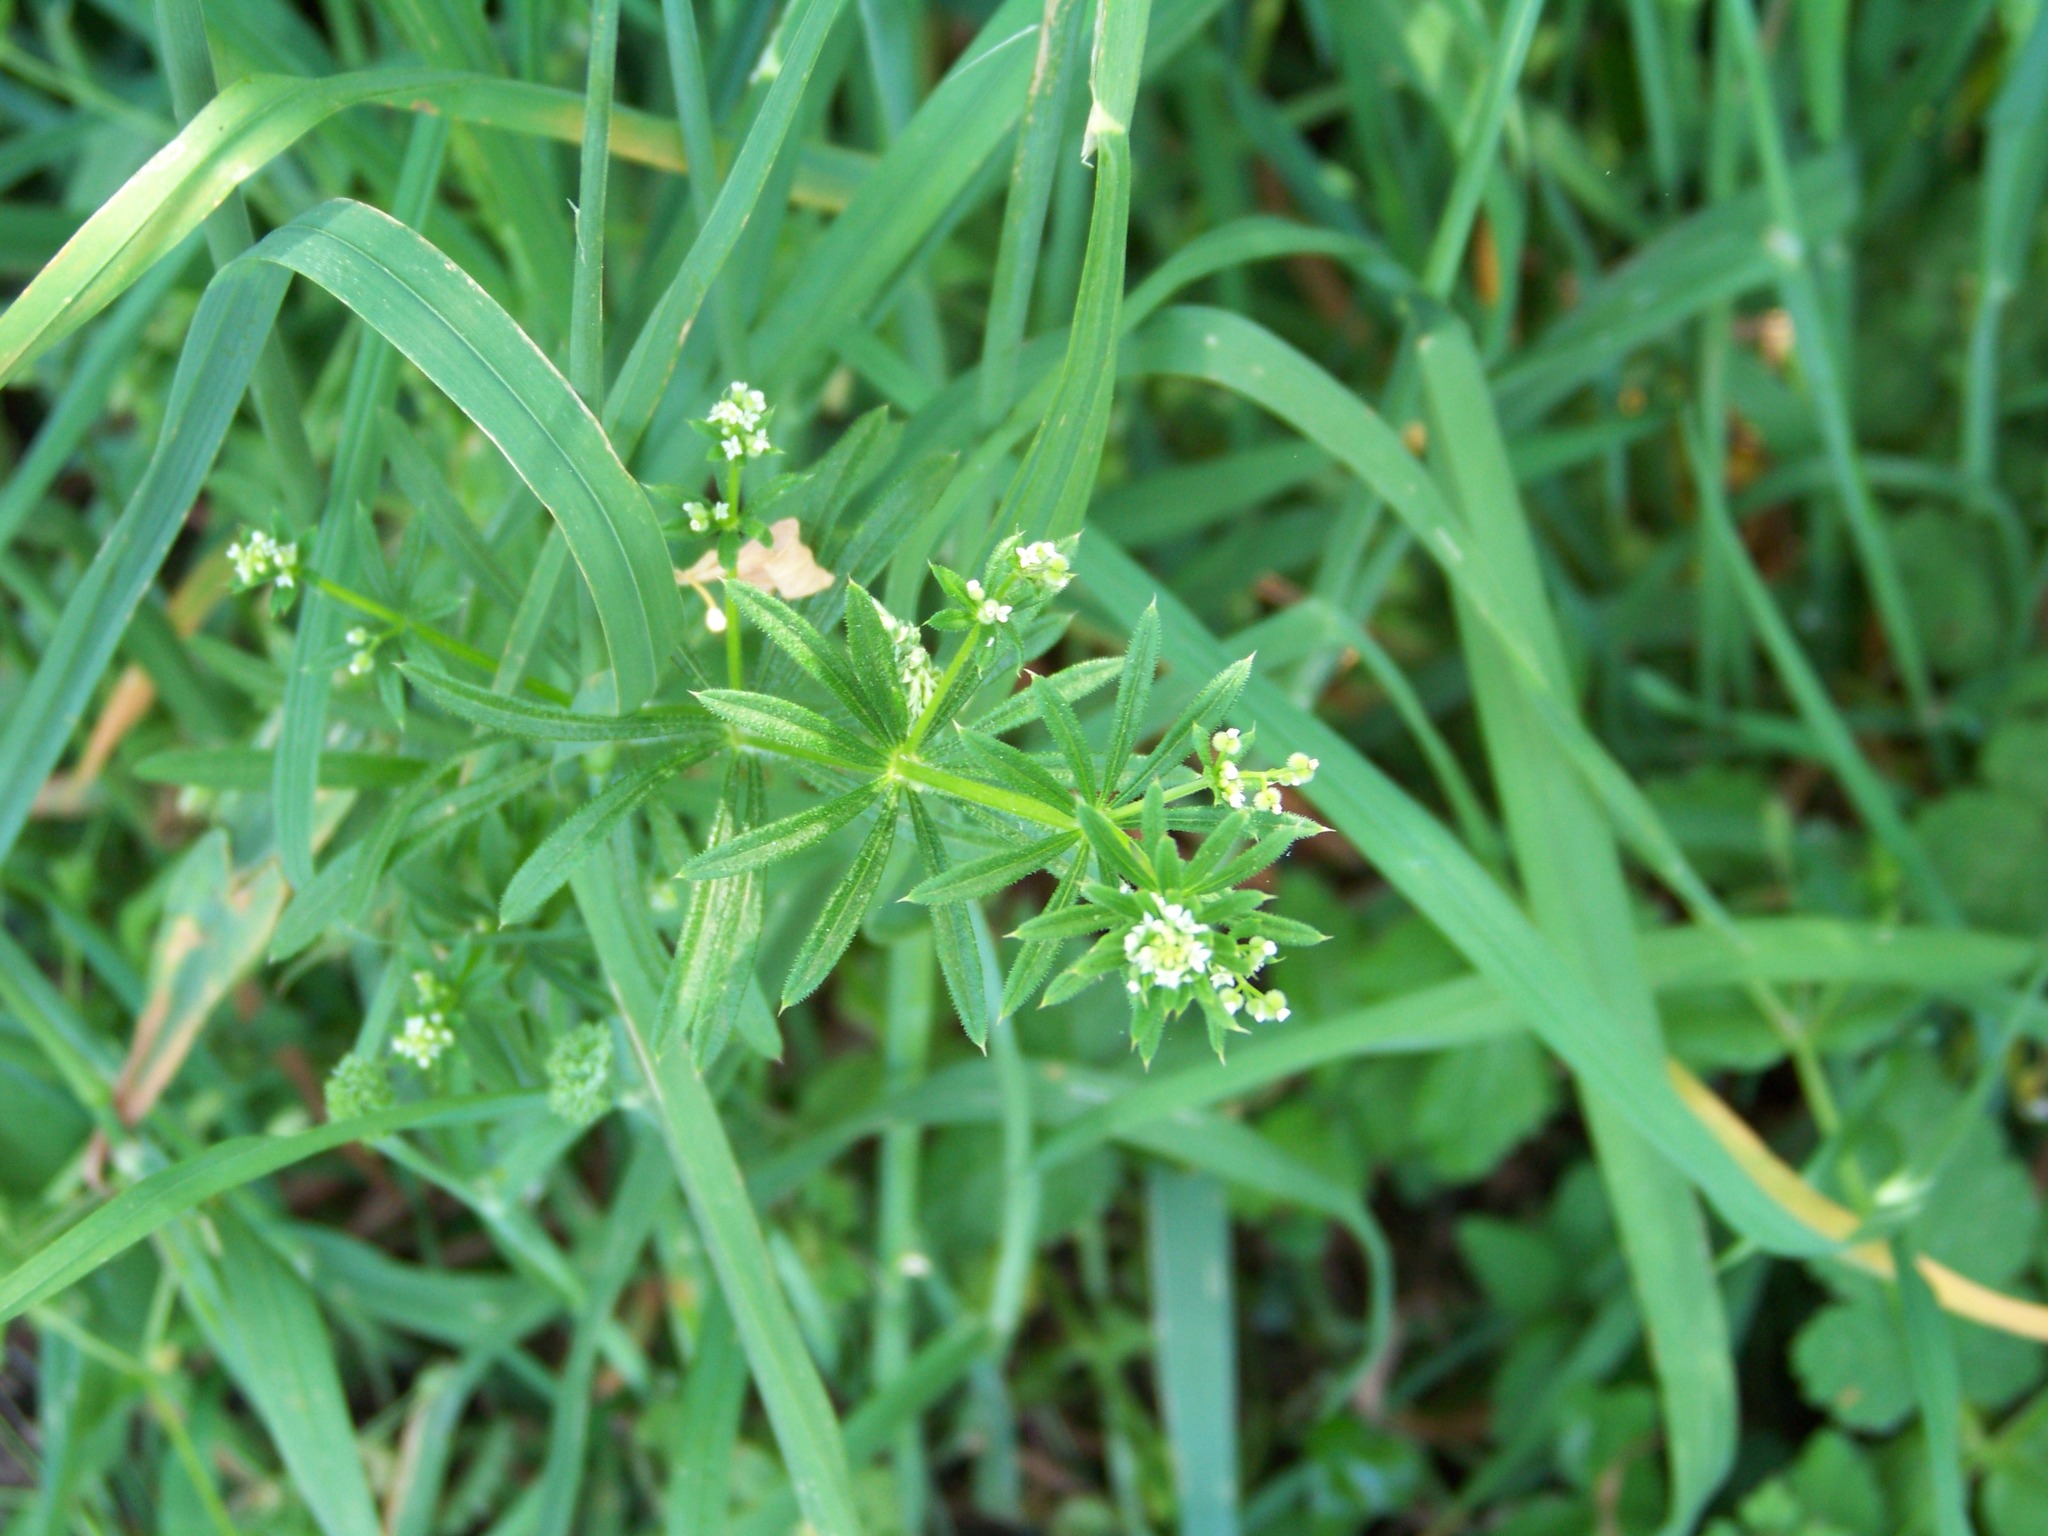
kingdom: Plantae
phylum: Tracheophyta
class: Magnoliopsida
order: Gentianales
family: Rubiaceae
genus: Galium
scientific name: Galium aparine
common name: Cleavers
